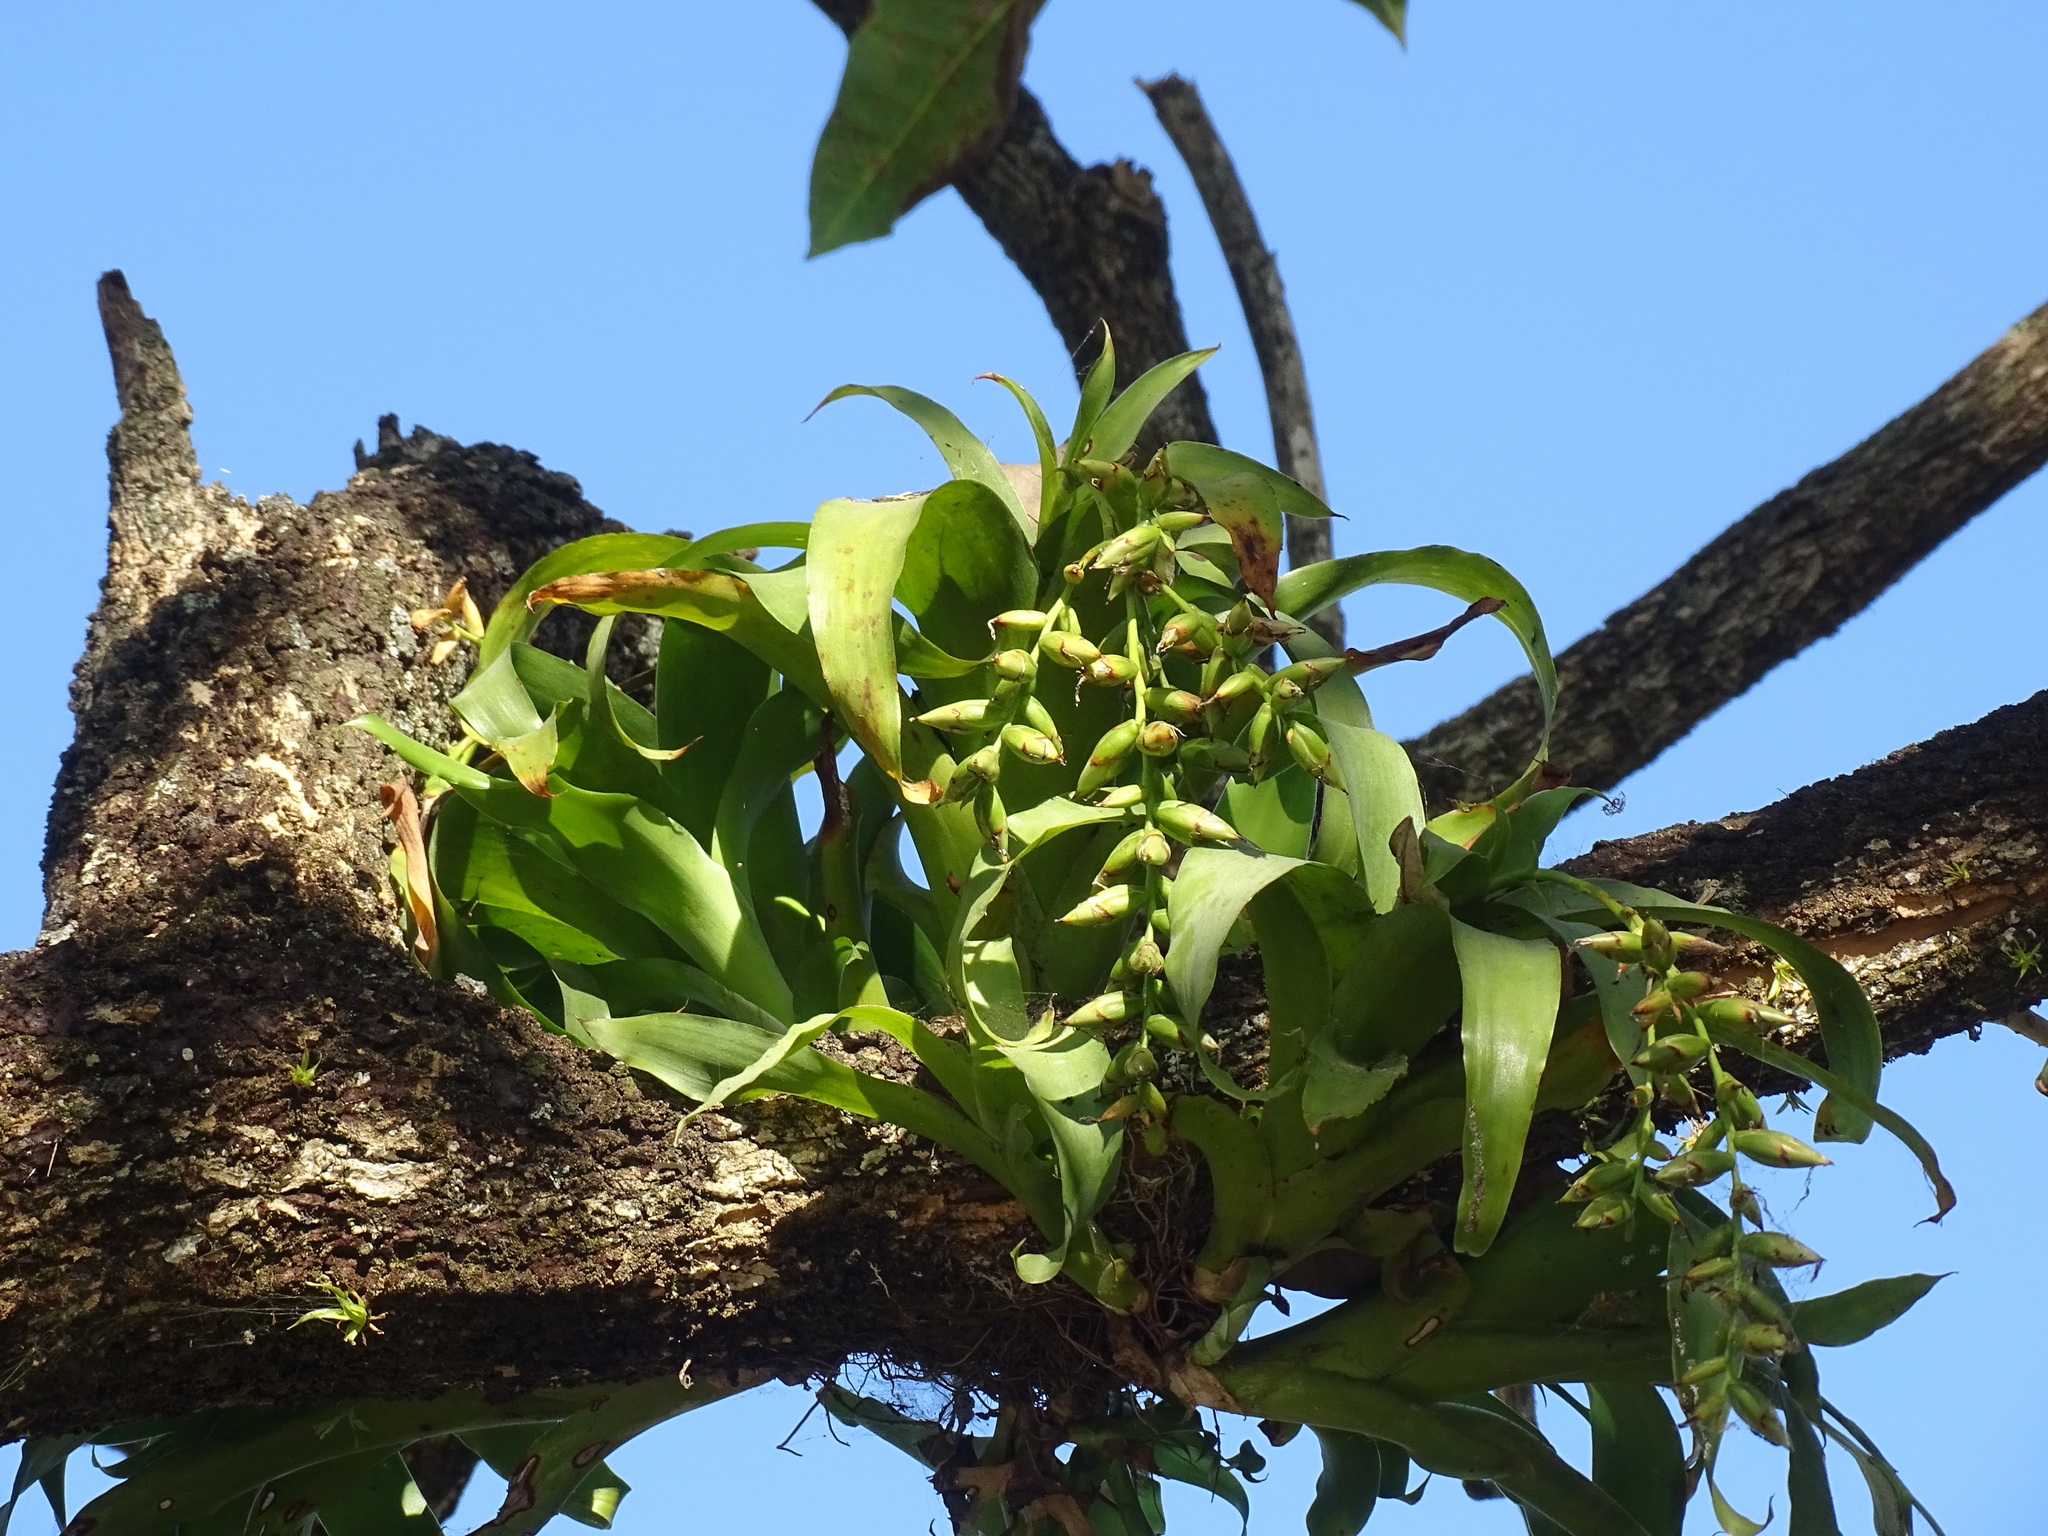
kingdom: Plantae
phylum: Tracheophyta
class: Liliopsida
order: Poales
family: Bromeliaceae
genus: Catopsis
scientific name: Catopsis nutans
